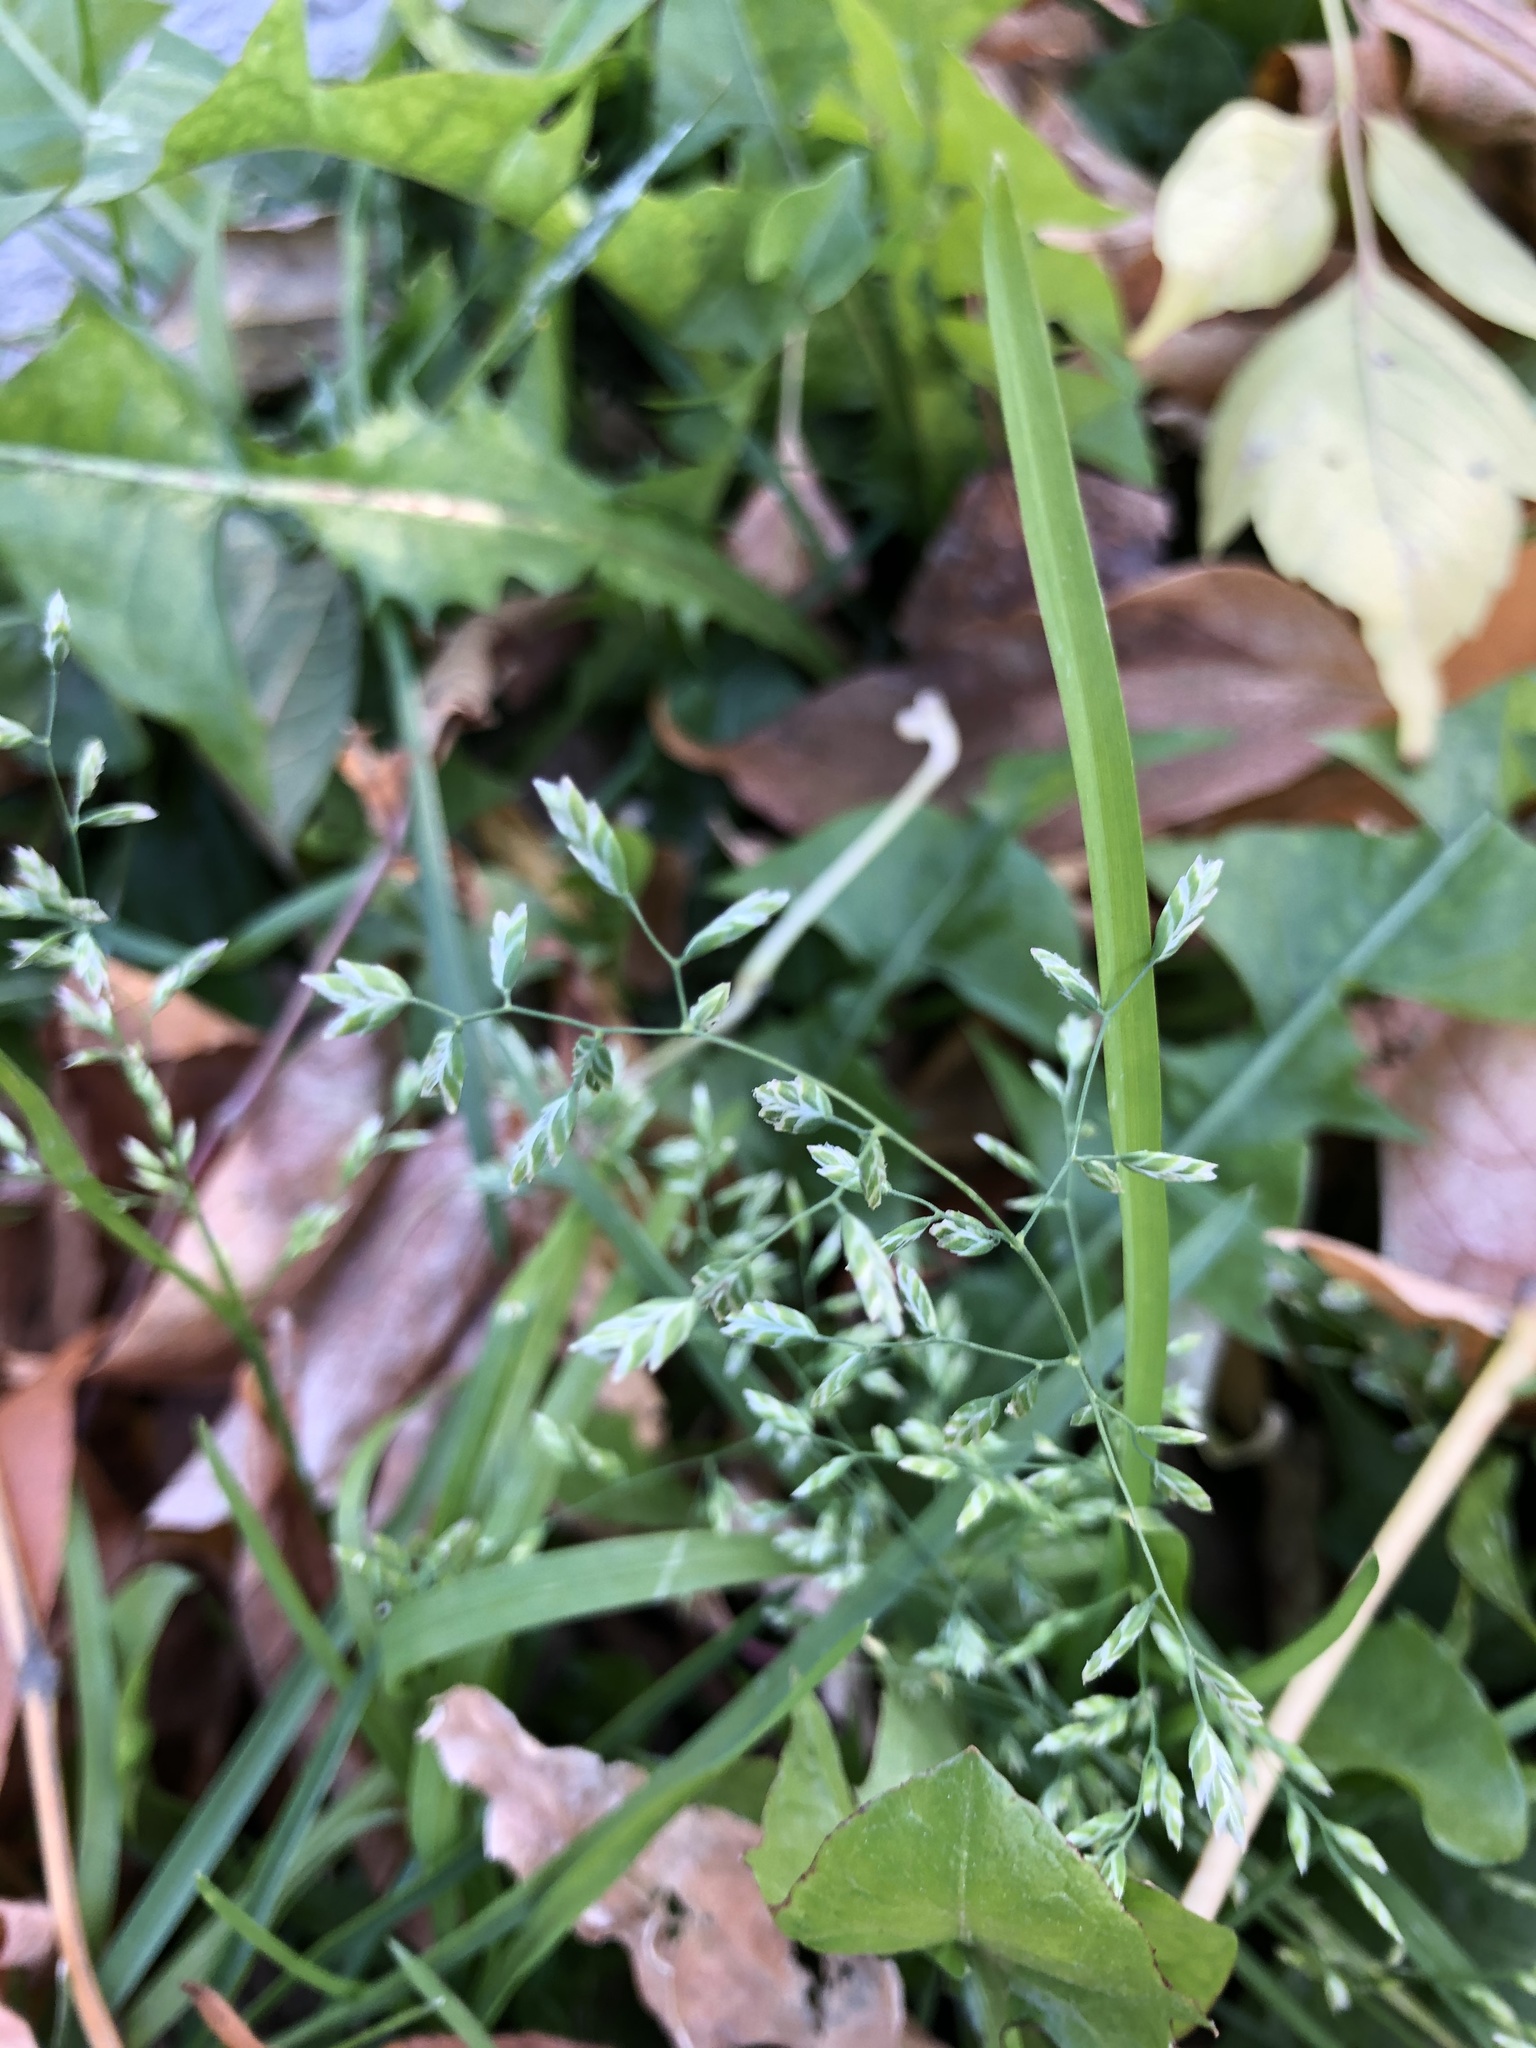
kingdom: Plantae
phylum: Tracheophyta
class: Liliopsida
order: Poales
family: Poaceae
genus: Poa
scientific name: Poa annua
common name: Annual bluegrass
